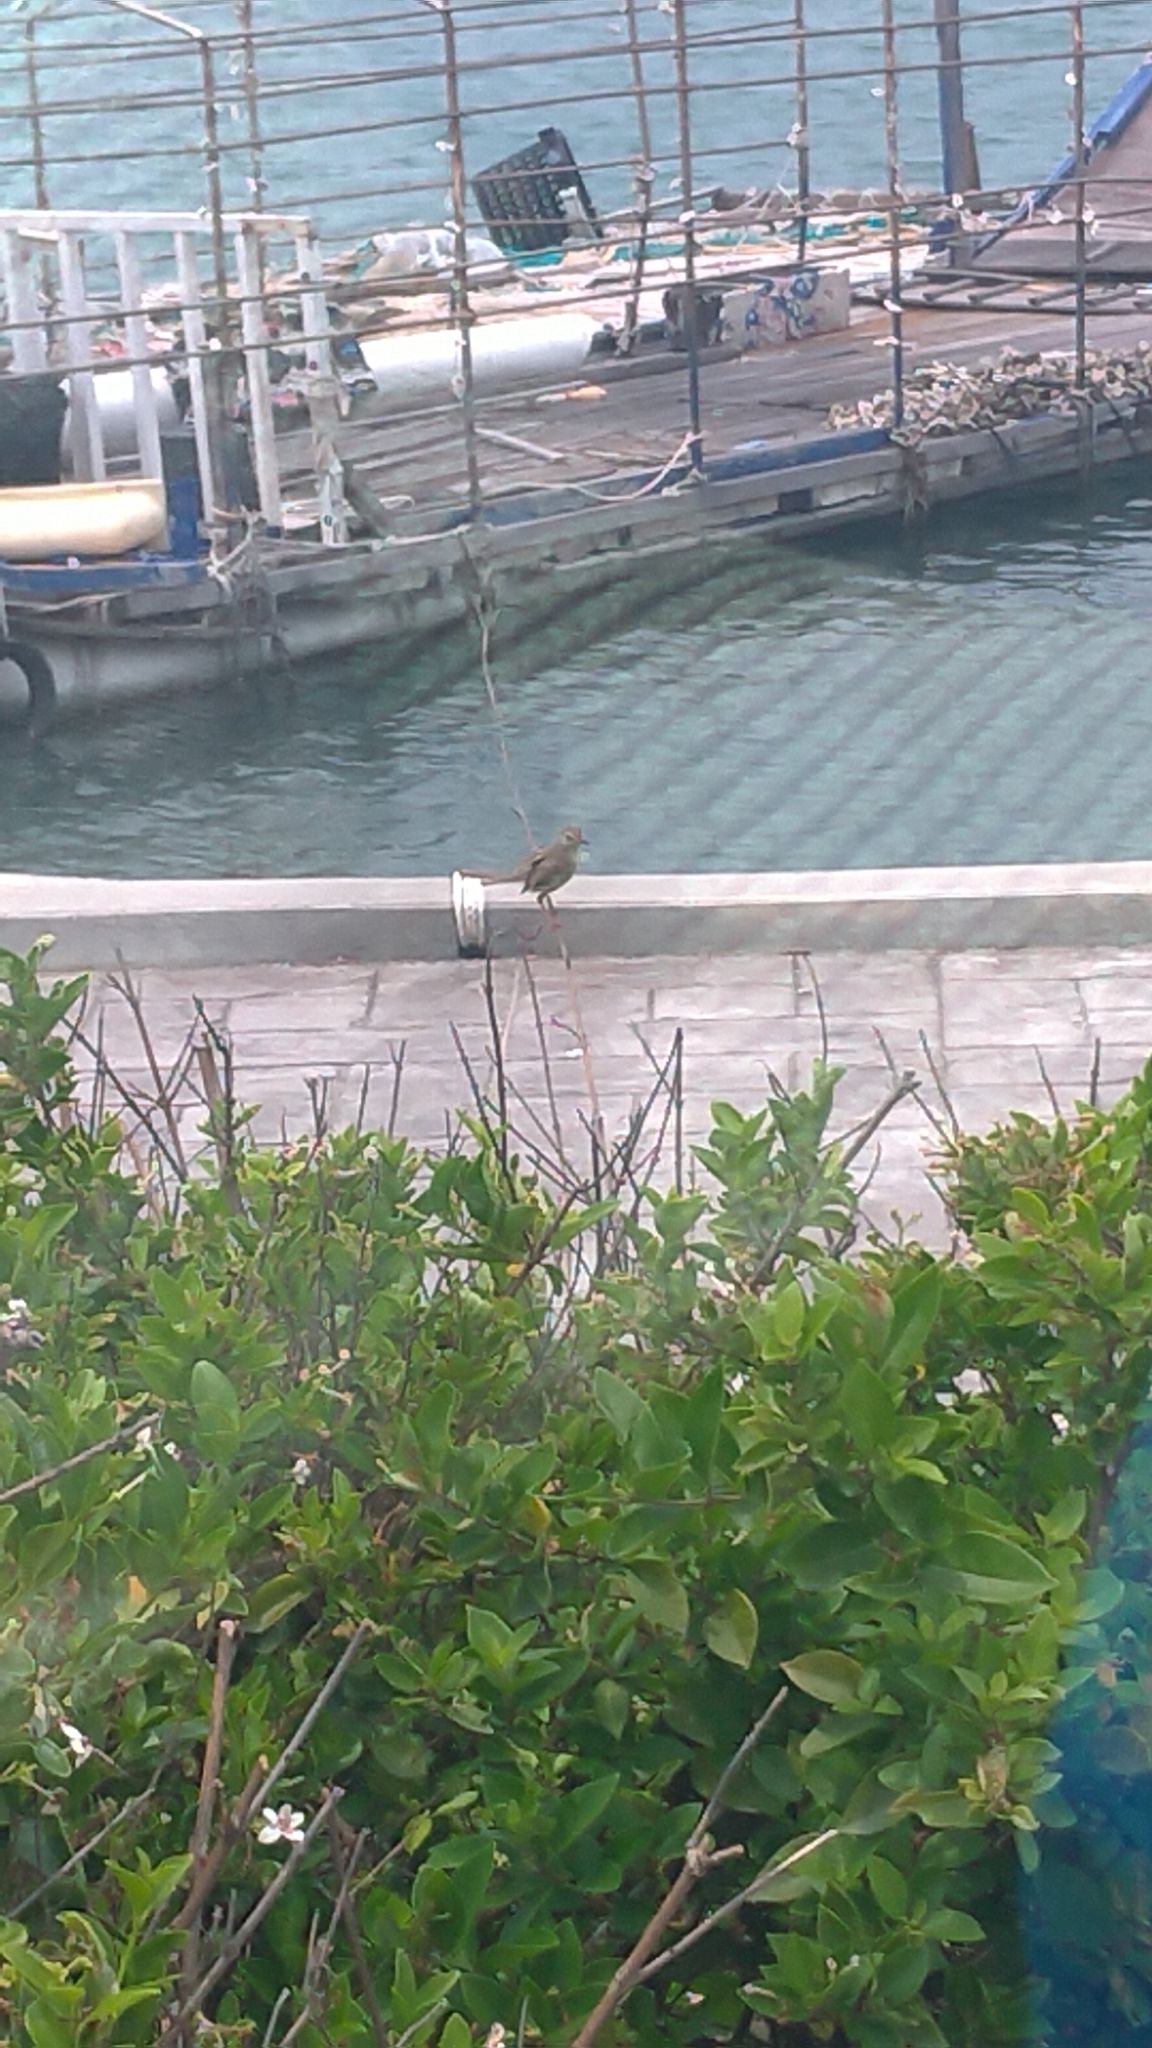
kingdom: Animalia
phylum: Chordata
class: Aves
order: Passeriformes
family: Cisticolidae
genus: Prinia
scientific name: Prinia inornata
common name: Plain prinia
